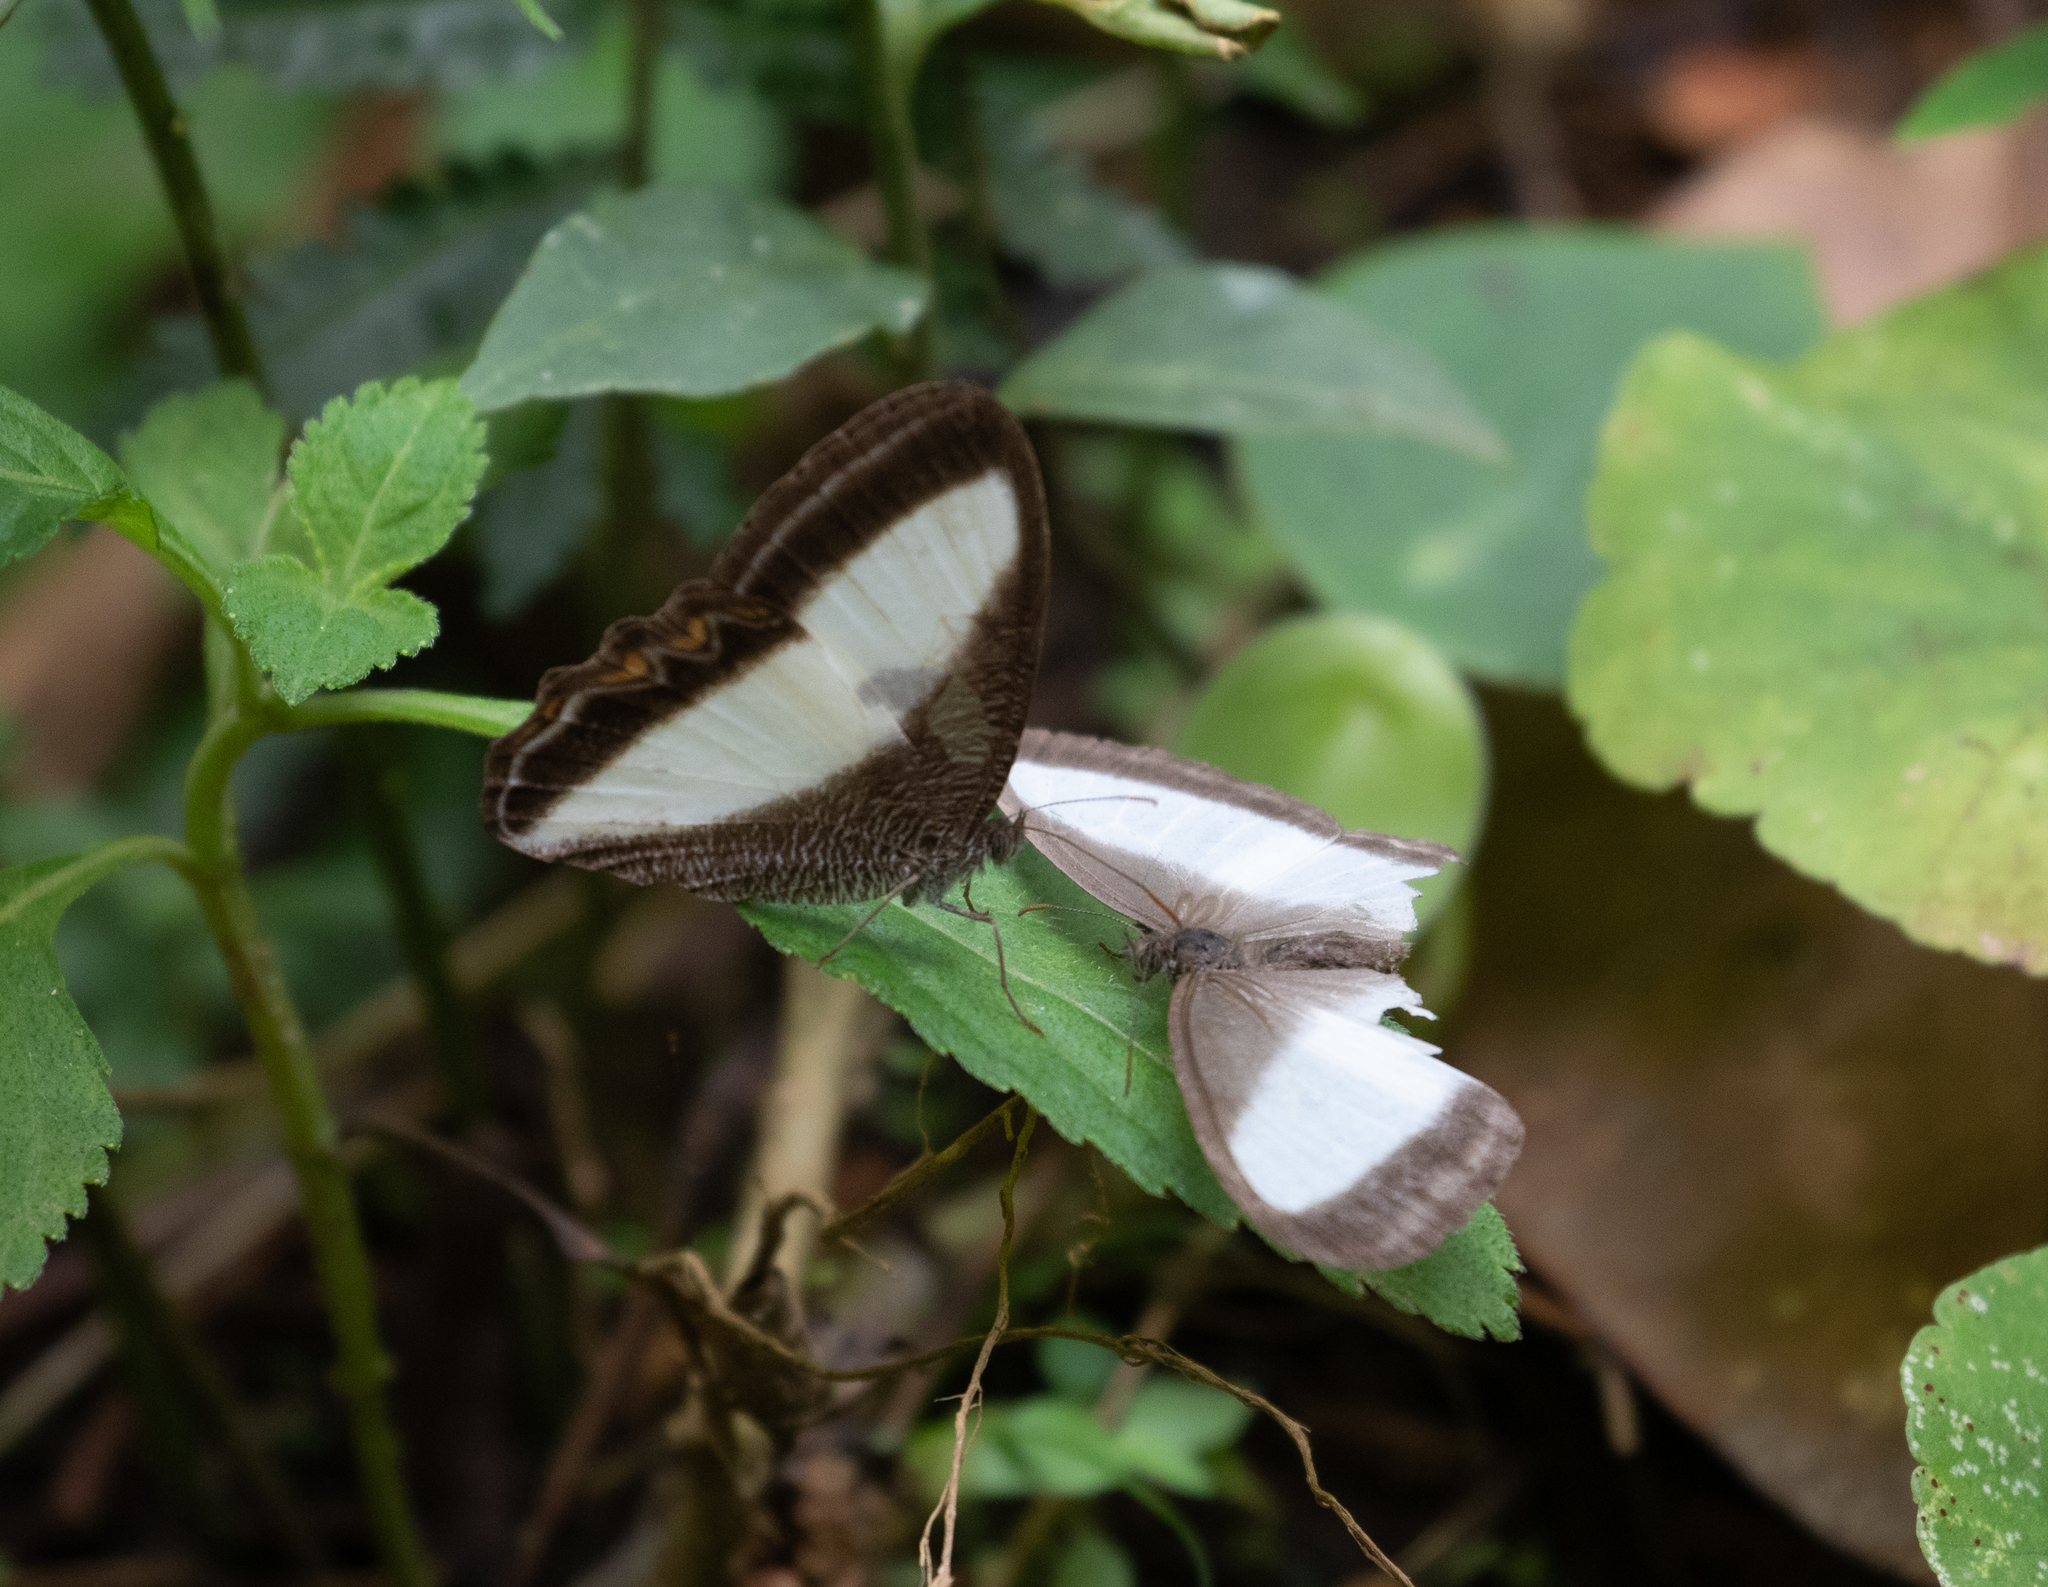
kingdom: Animalia
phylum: Arthropoda
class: Insecta
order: Lepidoptera
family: Nymphalidae
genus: Oressinoma
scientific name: Oressinoma typhla
